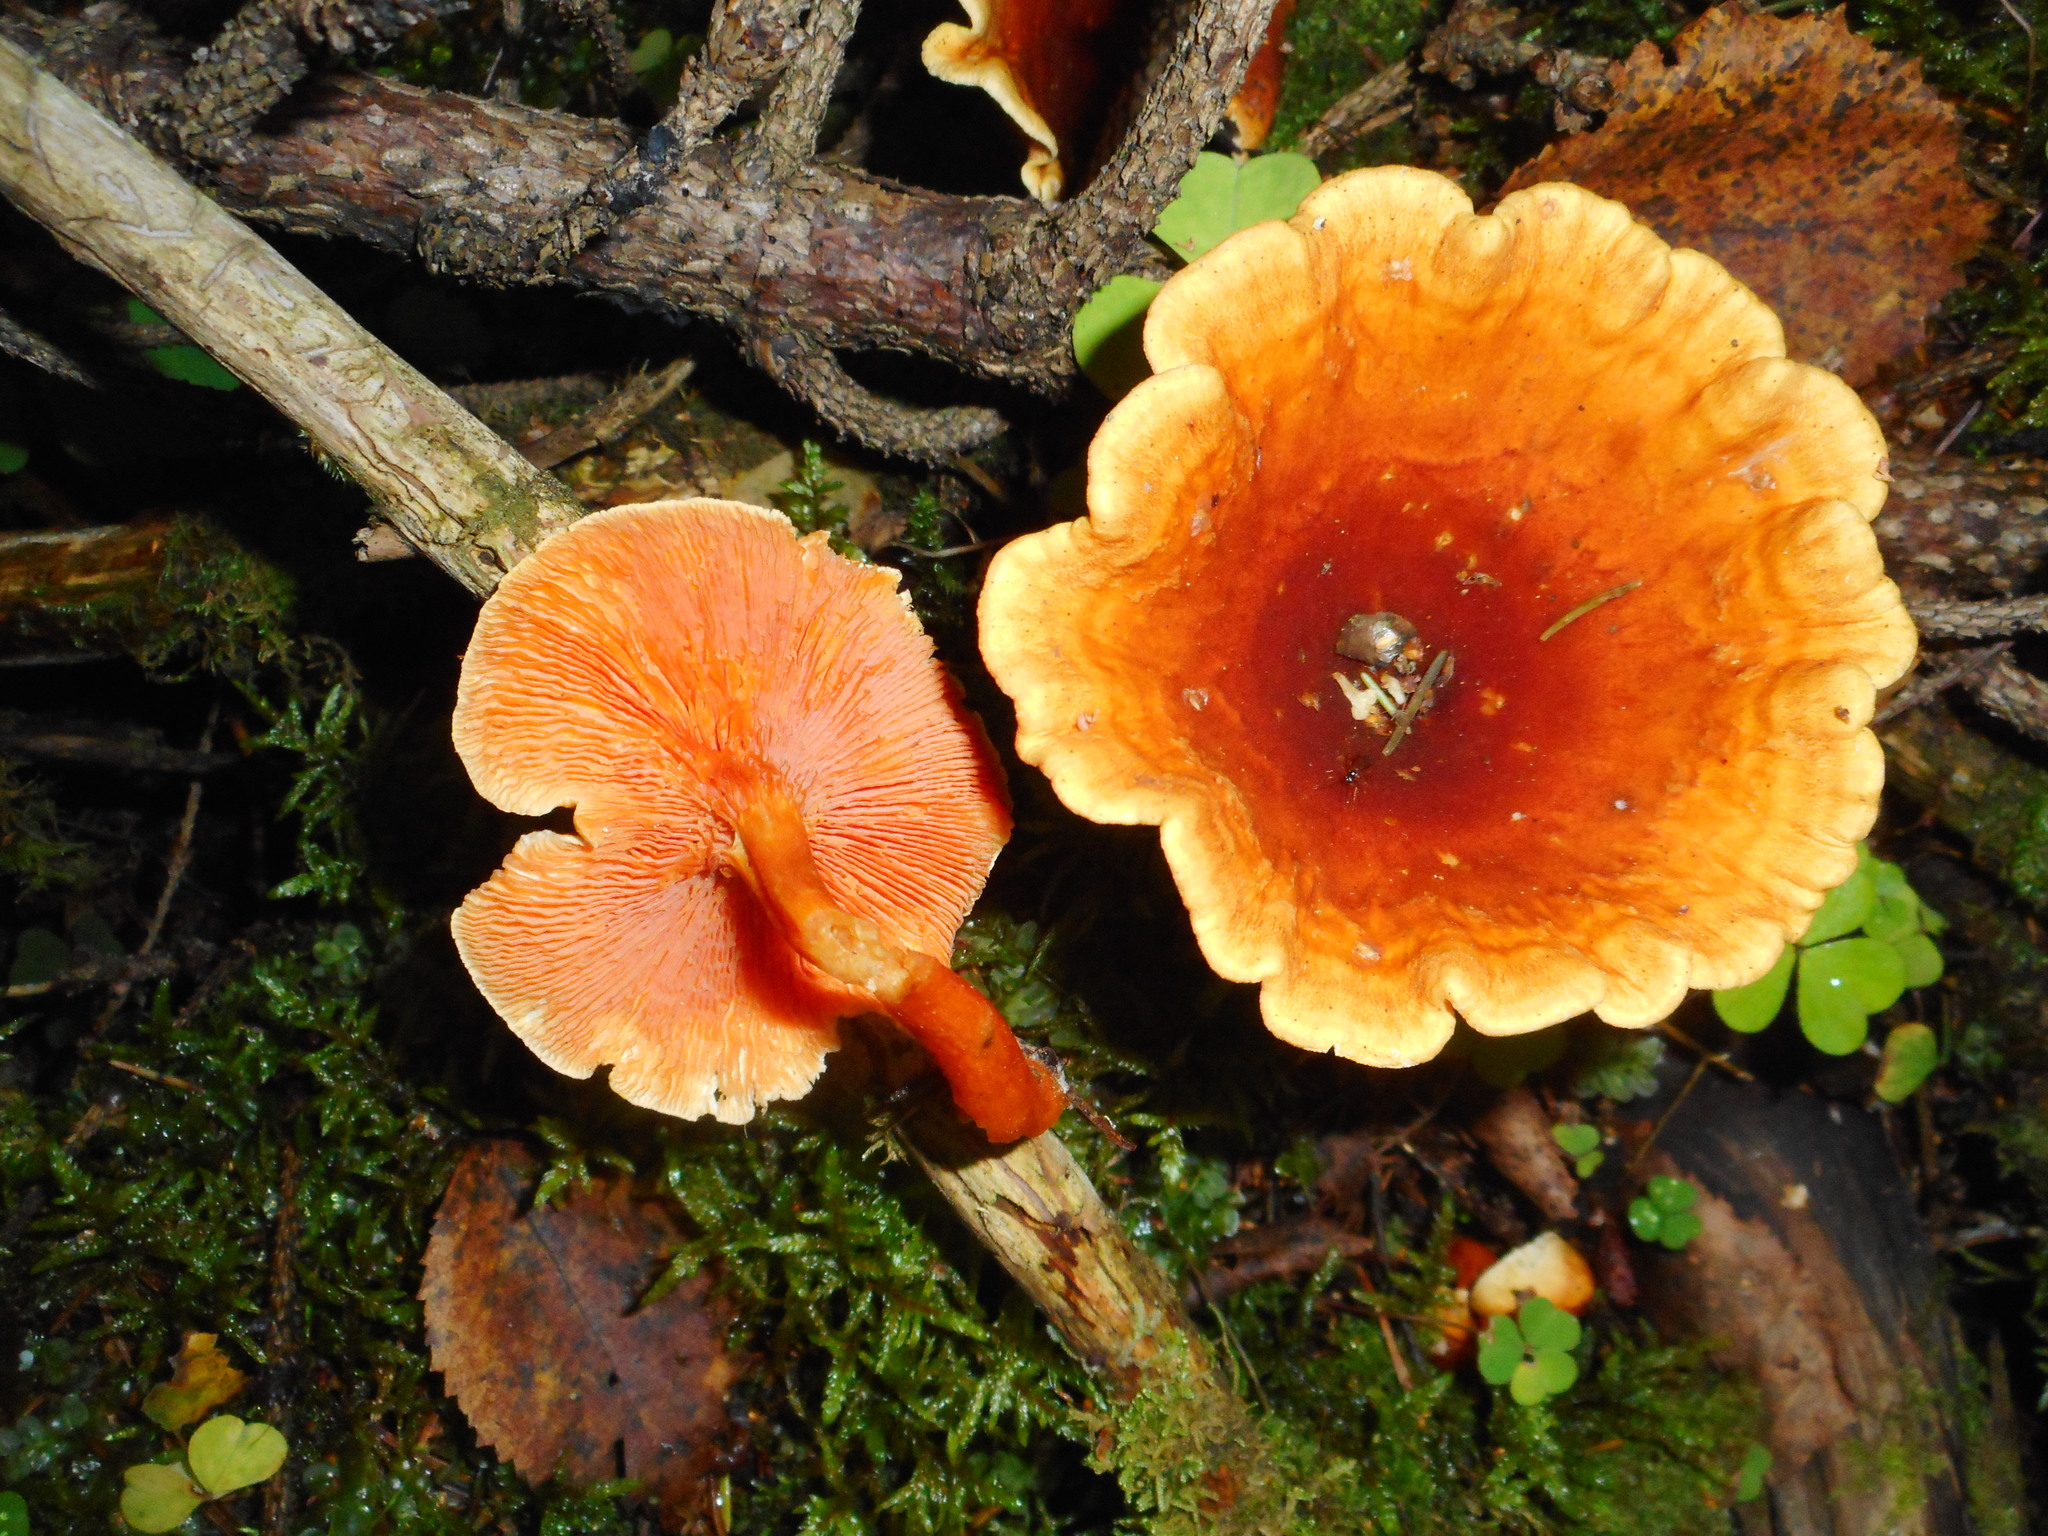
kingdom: Fungi
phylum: Basidiomycota
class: Agaricomycetes
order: Boletales
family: Hygrophoropsidaceae
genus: Hygrophoropsis
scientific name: Hygrophoropsis aurantiaca
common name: False chanterelle
